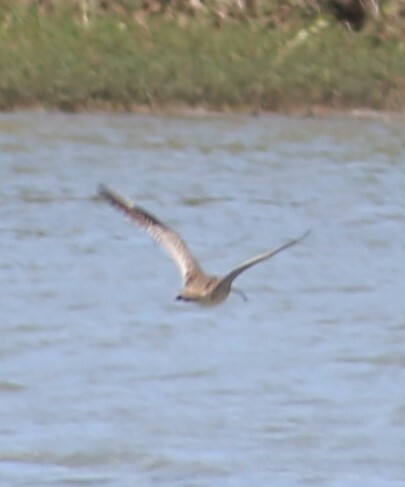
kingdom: Animalia
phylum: Chordata
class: Aves
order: Charadriiformes
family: Scolopacidae
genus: Numenius
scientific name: Numenius madagascariensis
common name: Far eastern curlew
